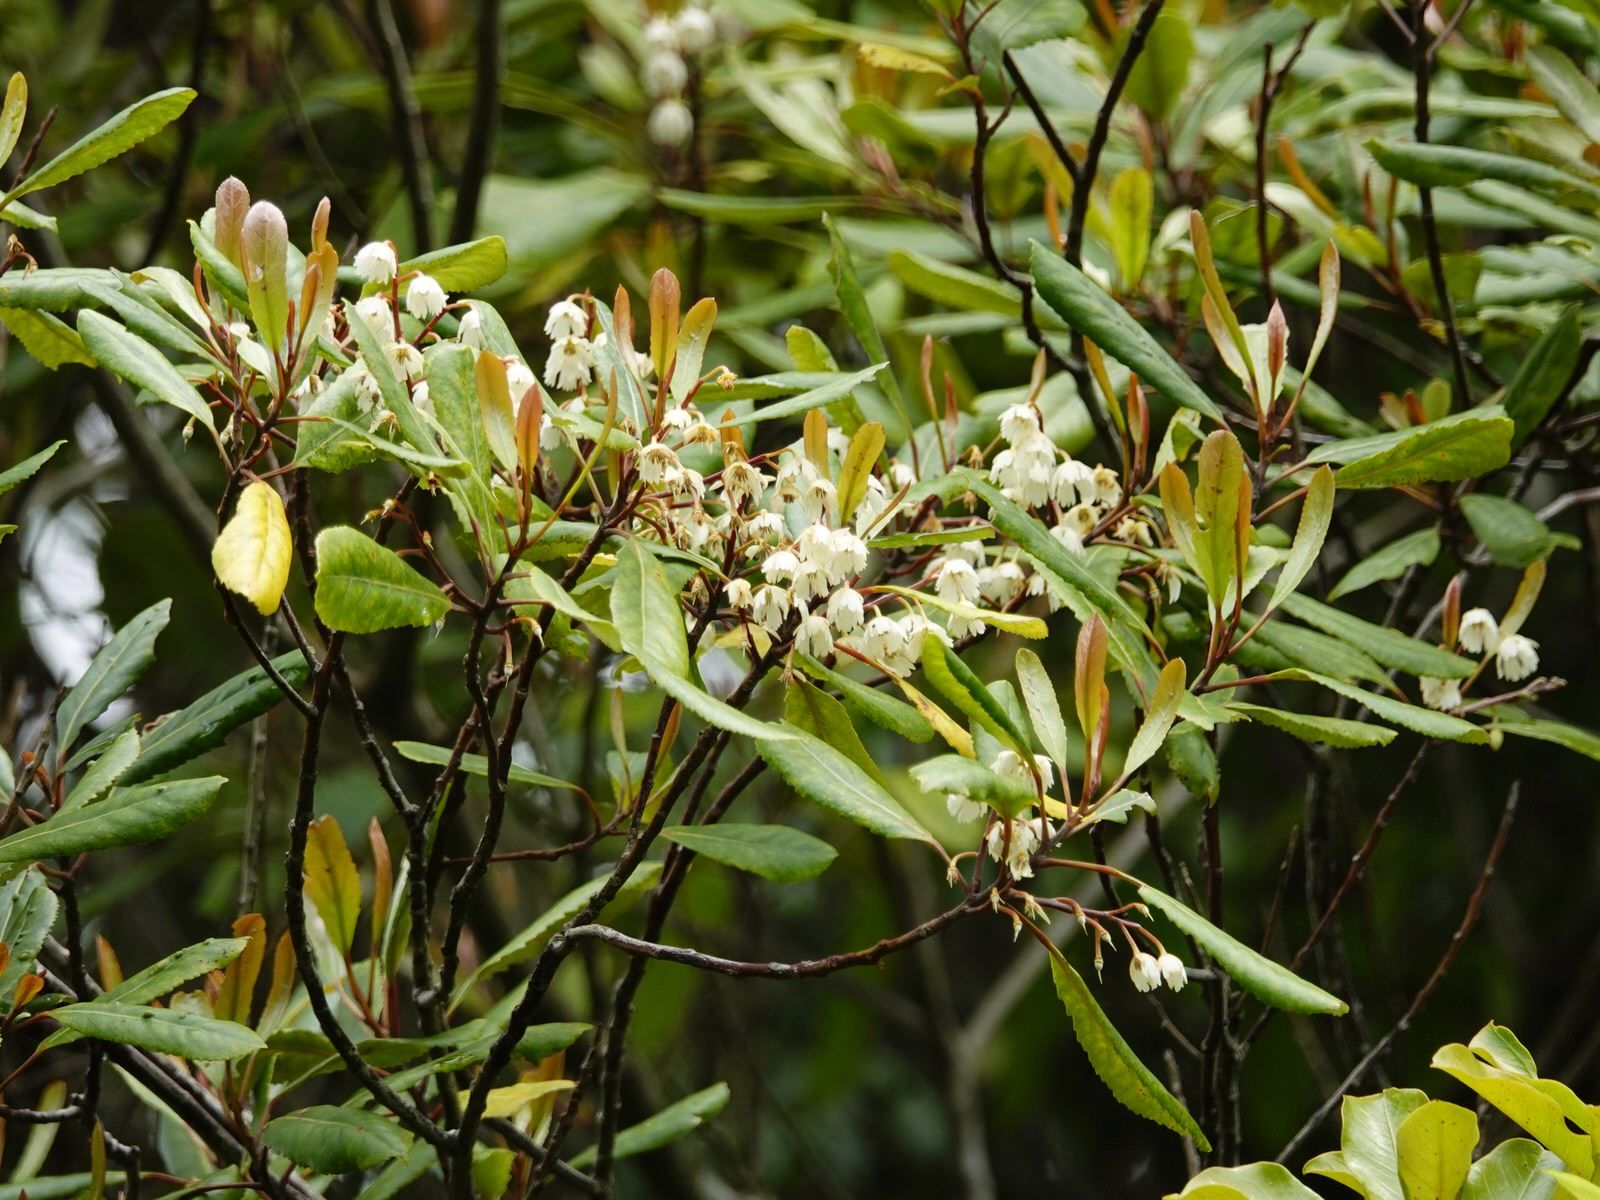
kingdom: Plantae
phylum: Tracheophyta
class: Magnoliopsida
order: Oxalidales
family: Elaeocarpaceae
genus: Elaeocarpus
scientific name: Elaeocarpus dentatus
